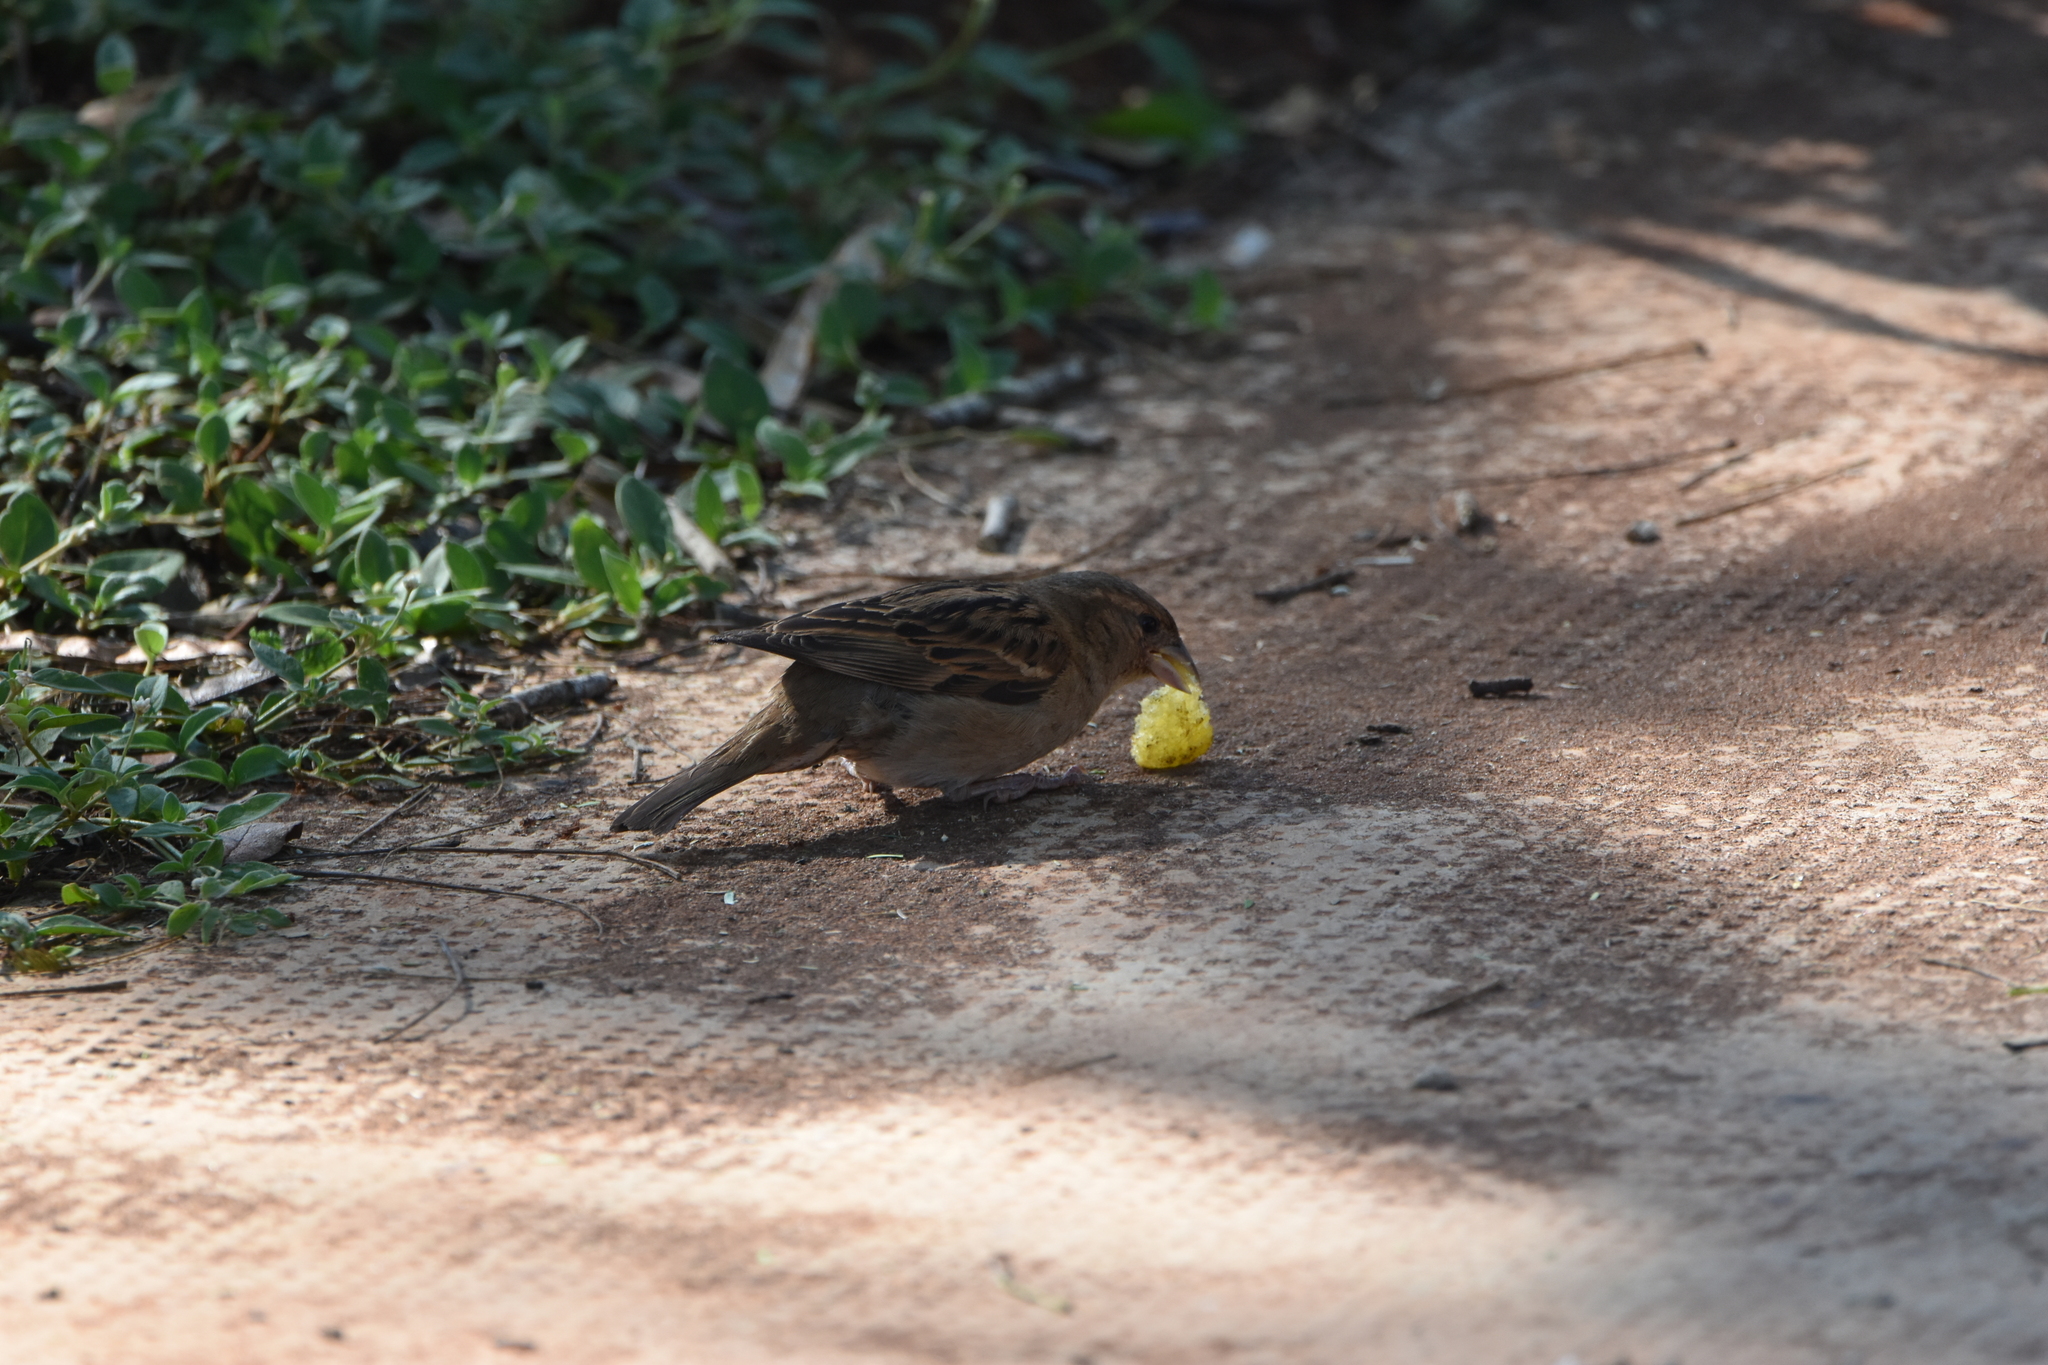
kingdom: Animalia
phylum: Chordata
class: Aves
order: Passeriformes
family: Passeridae
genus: Passer
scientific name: Passer domesticus
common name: House sparrow
